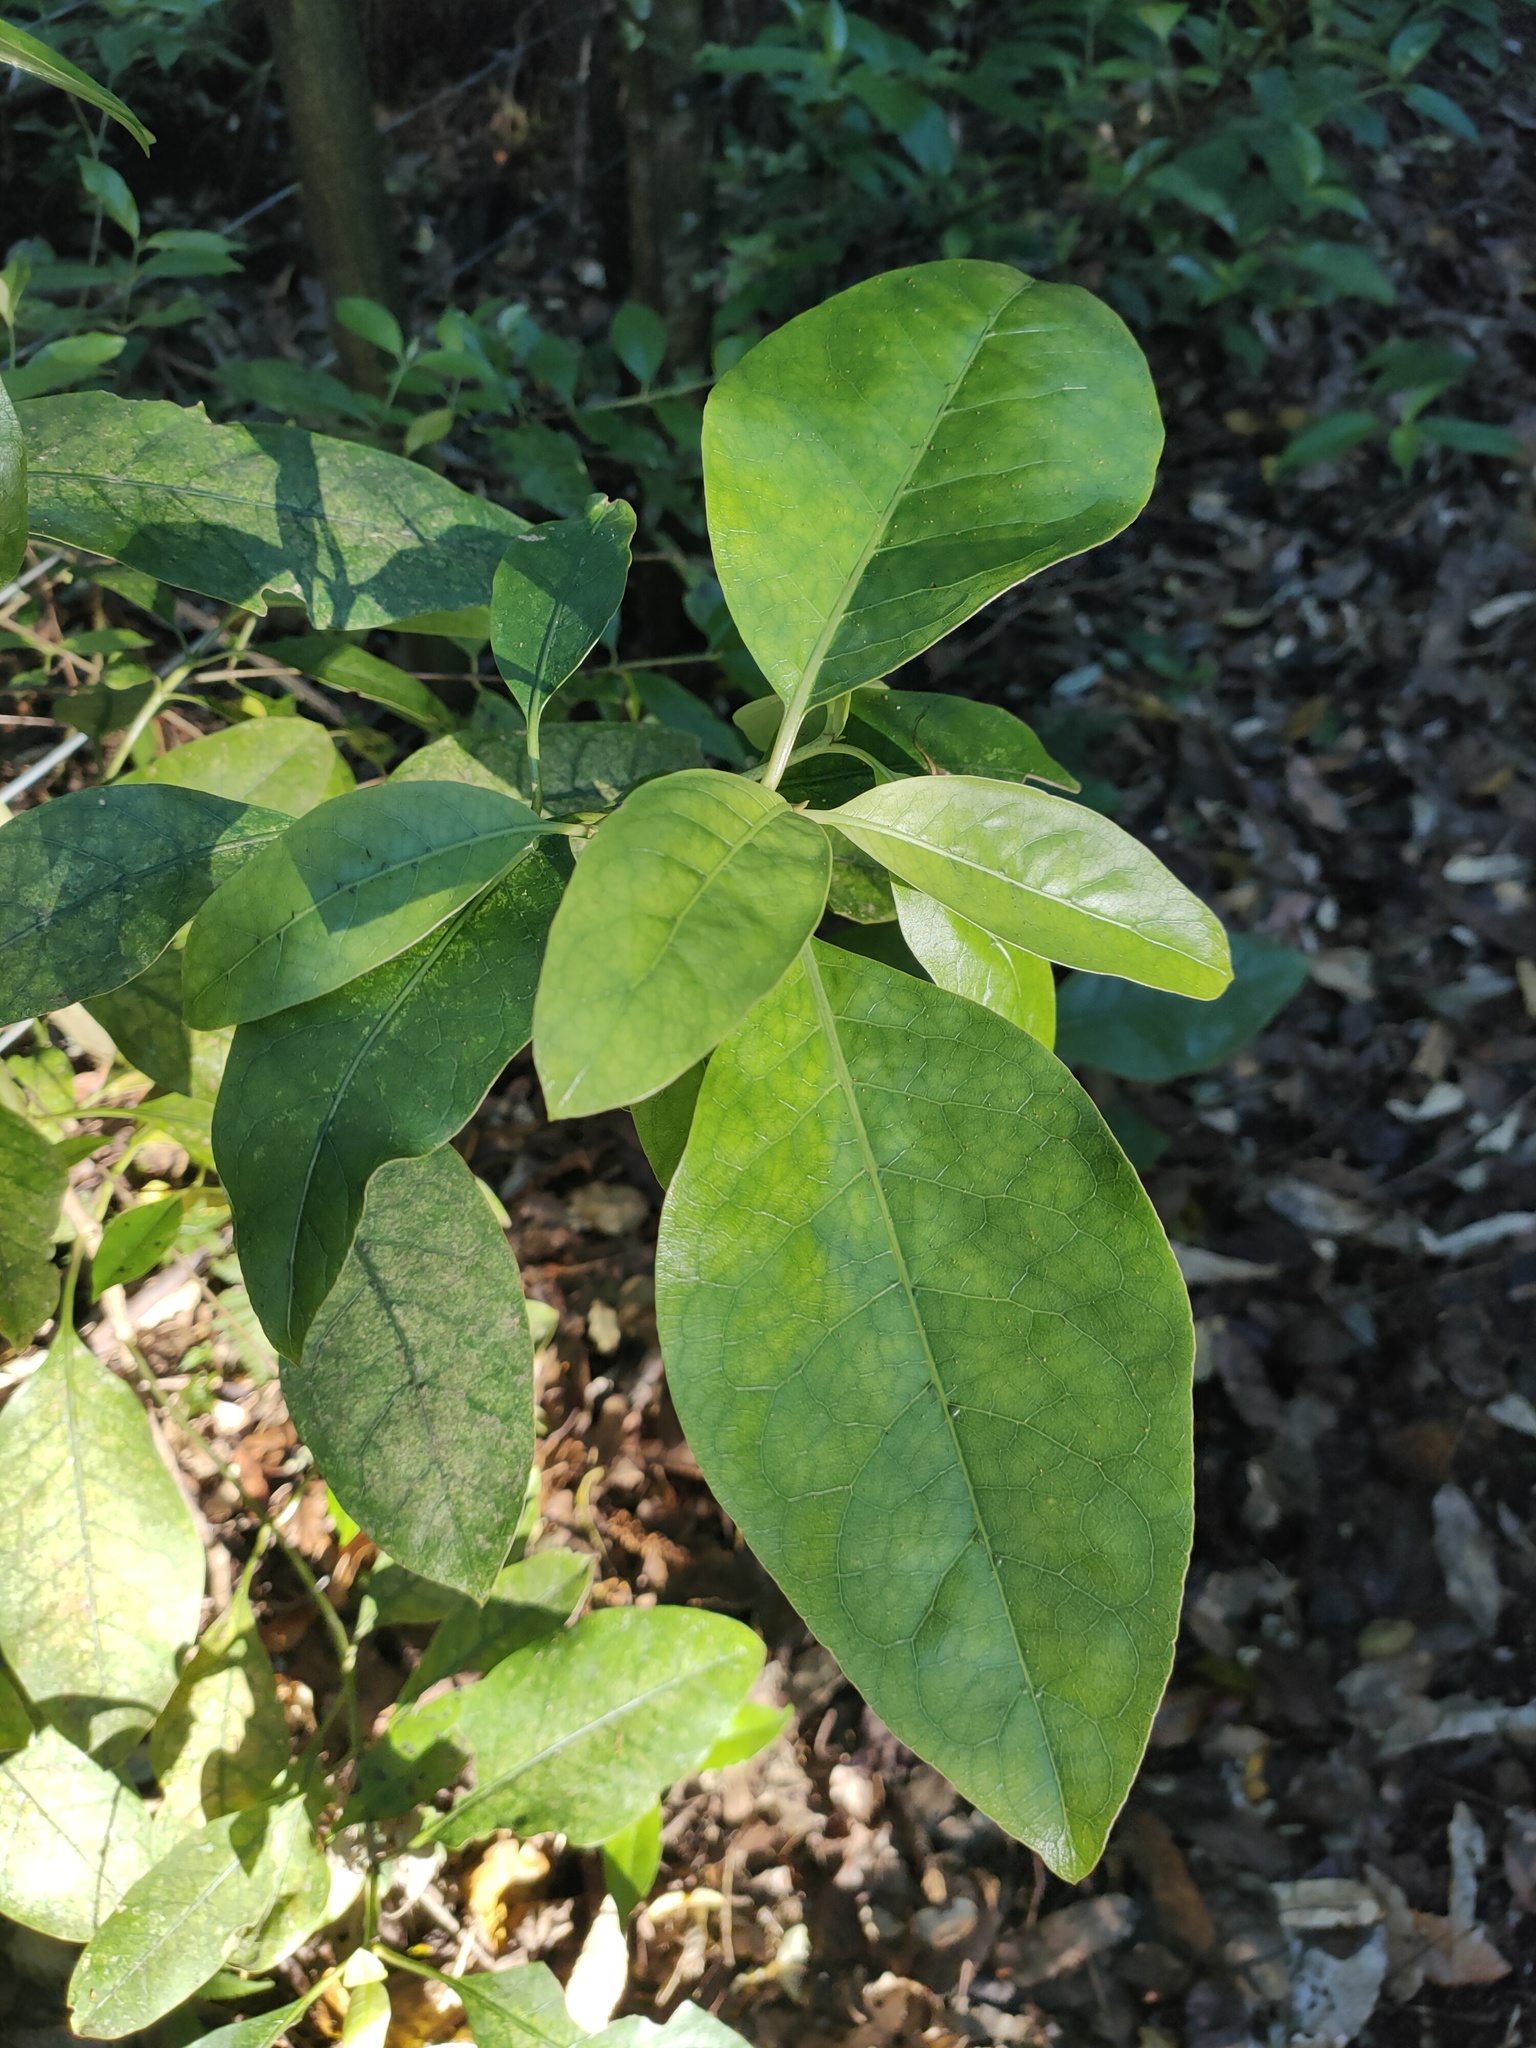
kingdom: Plantae
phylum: Tracheophyta
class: Magnoliopsida
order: Gentianales
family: Rubiaceae
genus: Coprosma
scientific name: Coprosma autumnalis
